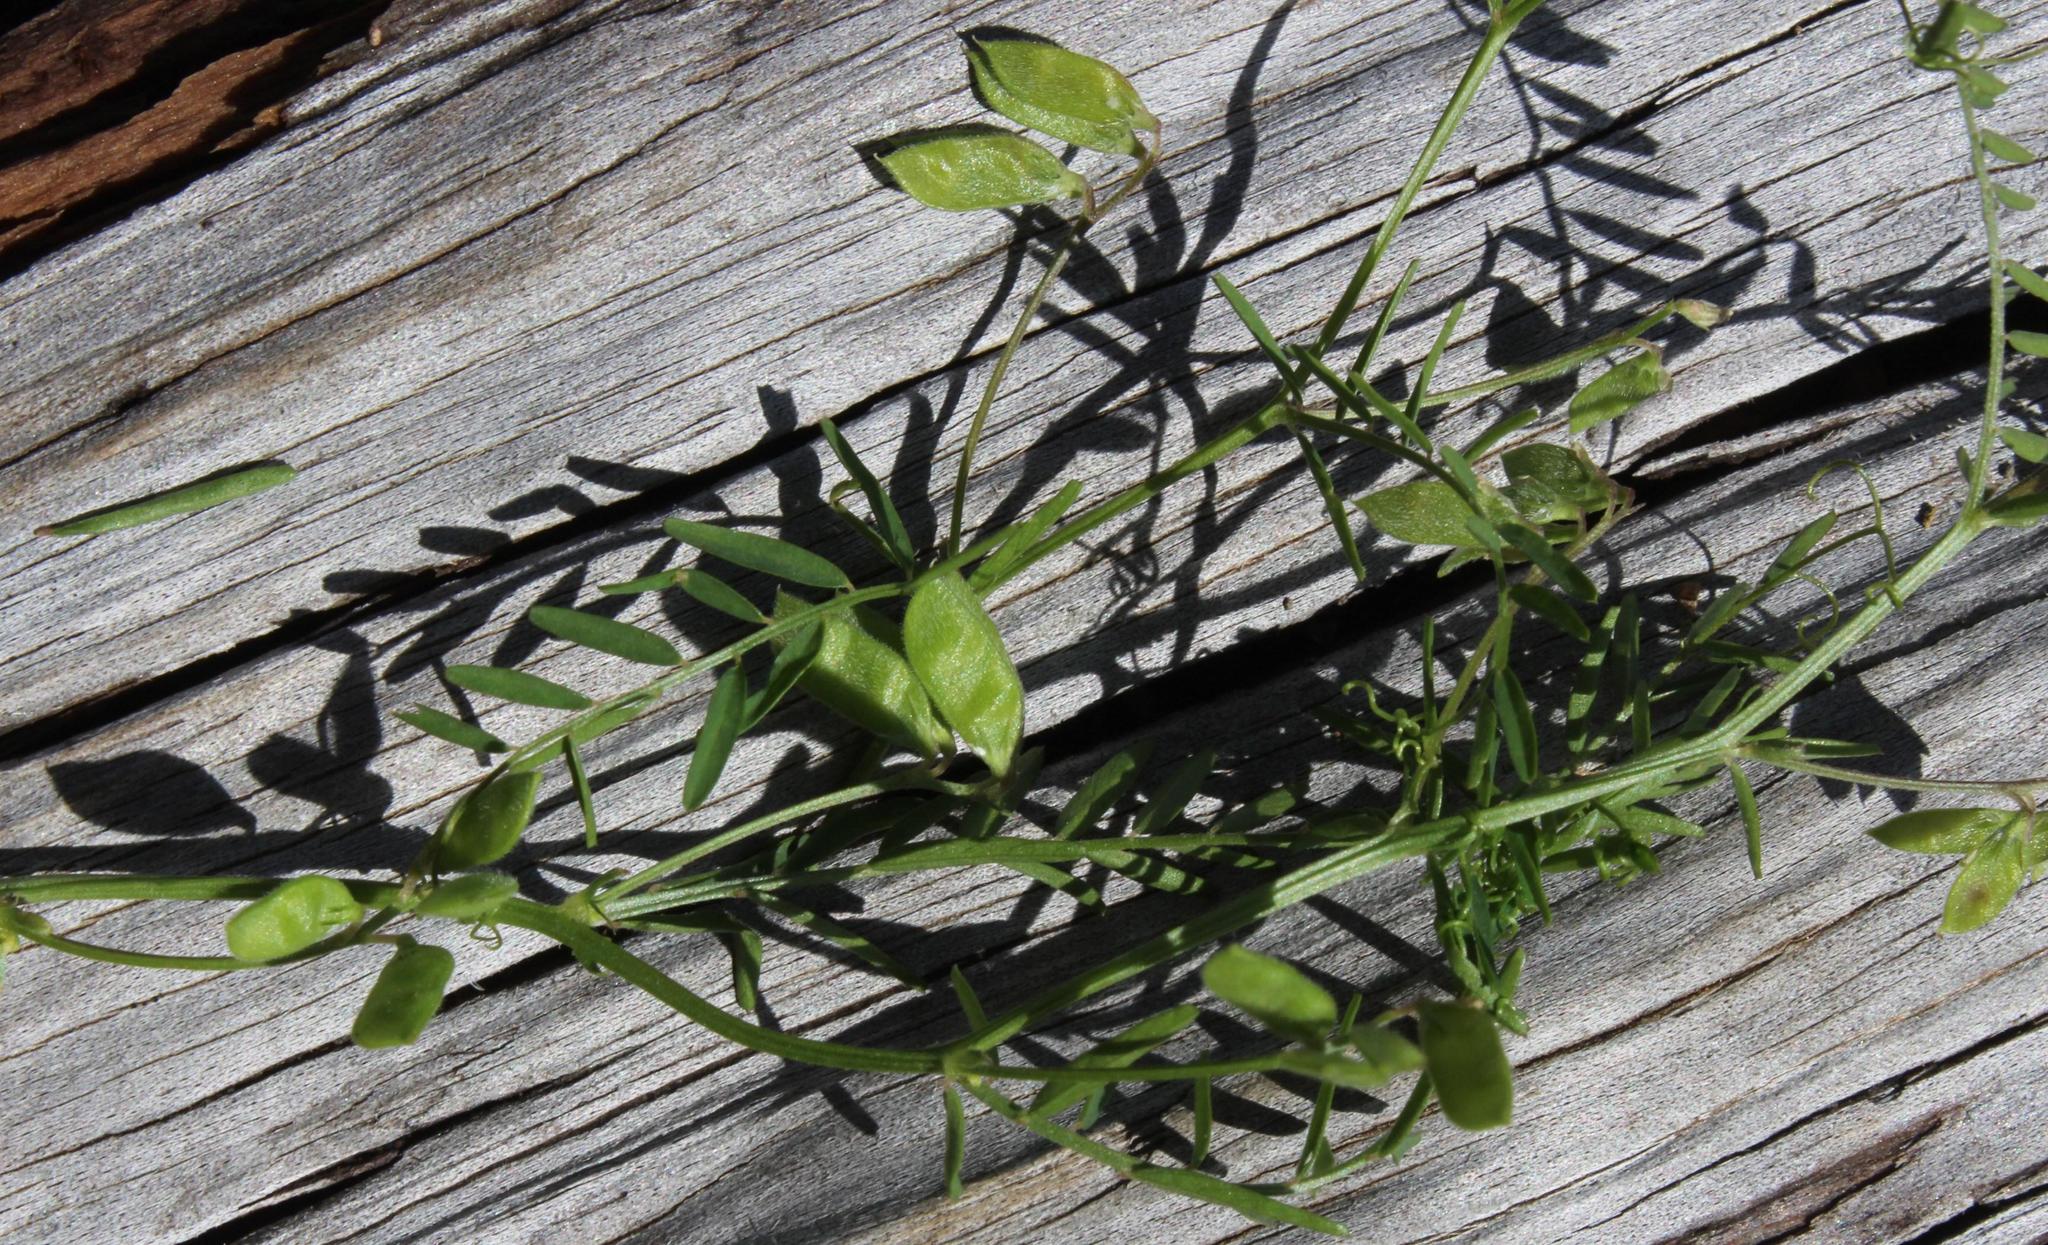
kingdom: Plantae
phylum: Tracheophyta
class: Magnoliopsida
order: Fabales
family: Fabaceae
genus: Vicia
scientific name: Vicia hirsuta
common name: Tiny vetch
